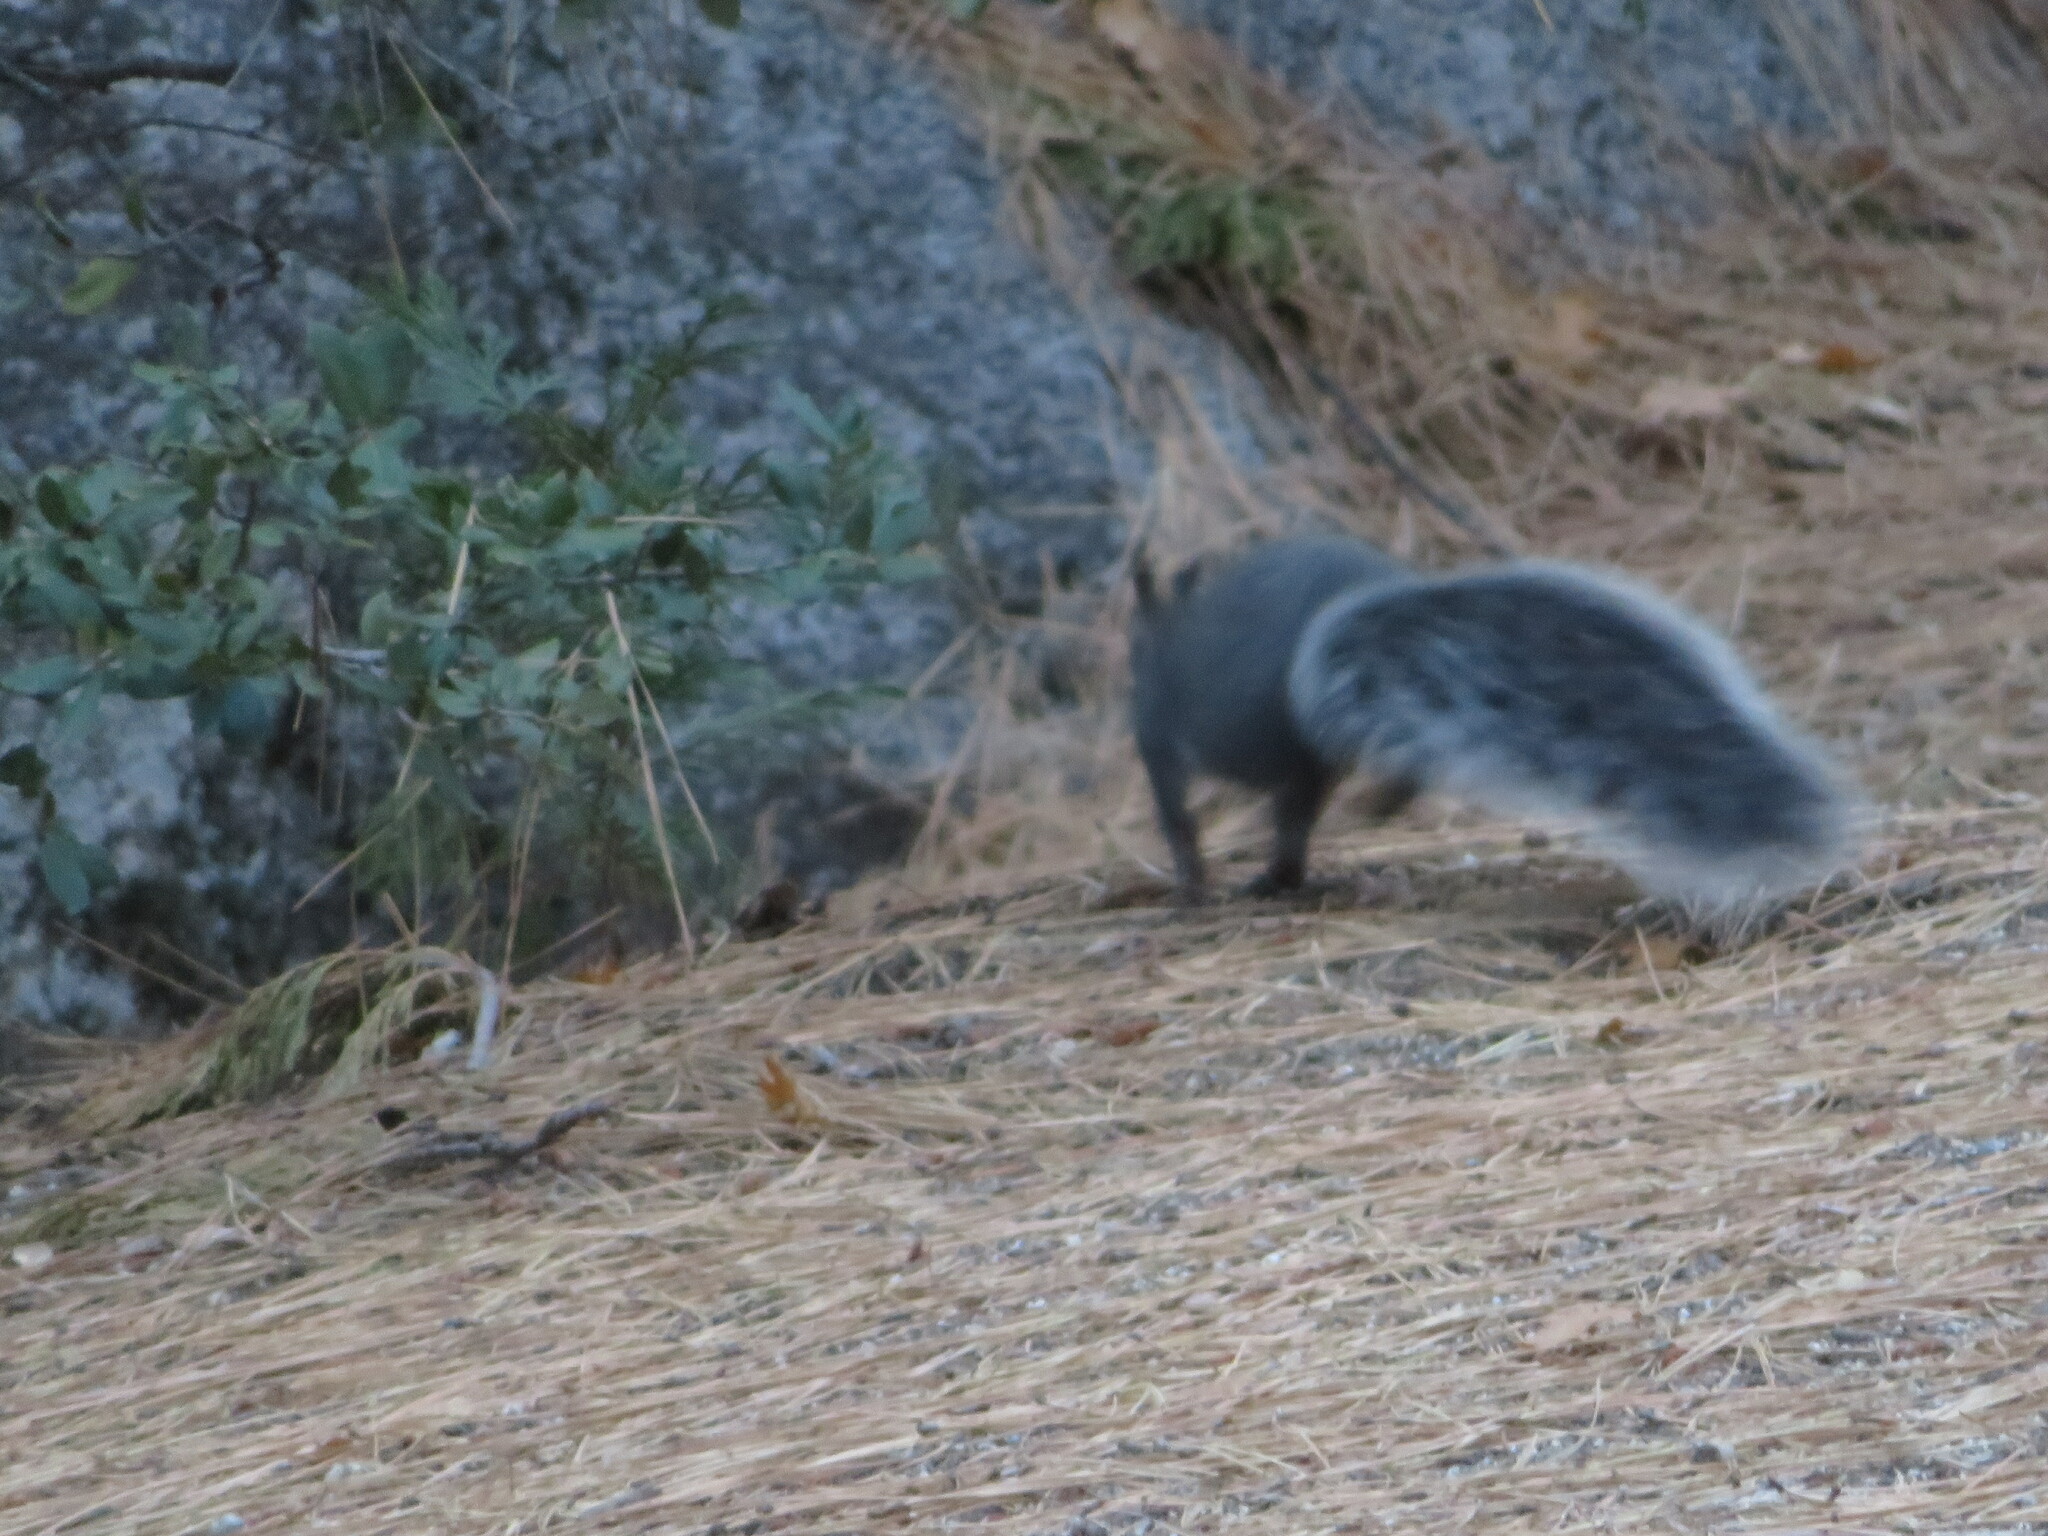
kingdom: Animalia
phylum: Chordata
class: Mammalia
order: Rodentia
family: Sciuridae
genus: Sciurus
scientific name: Sciurus griseus
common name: Western gray squirrel
